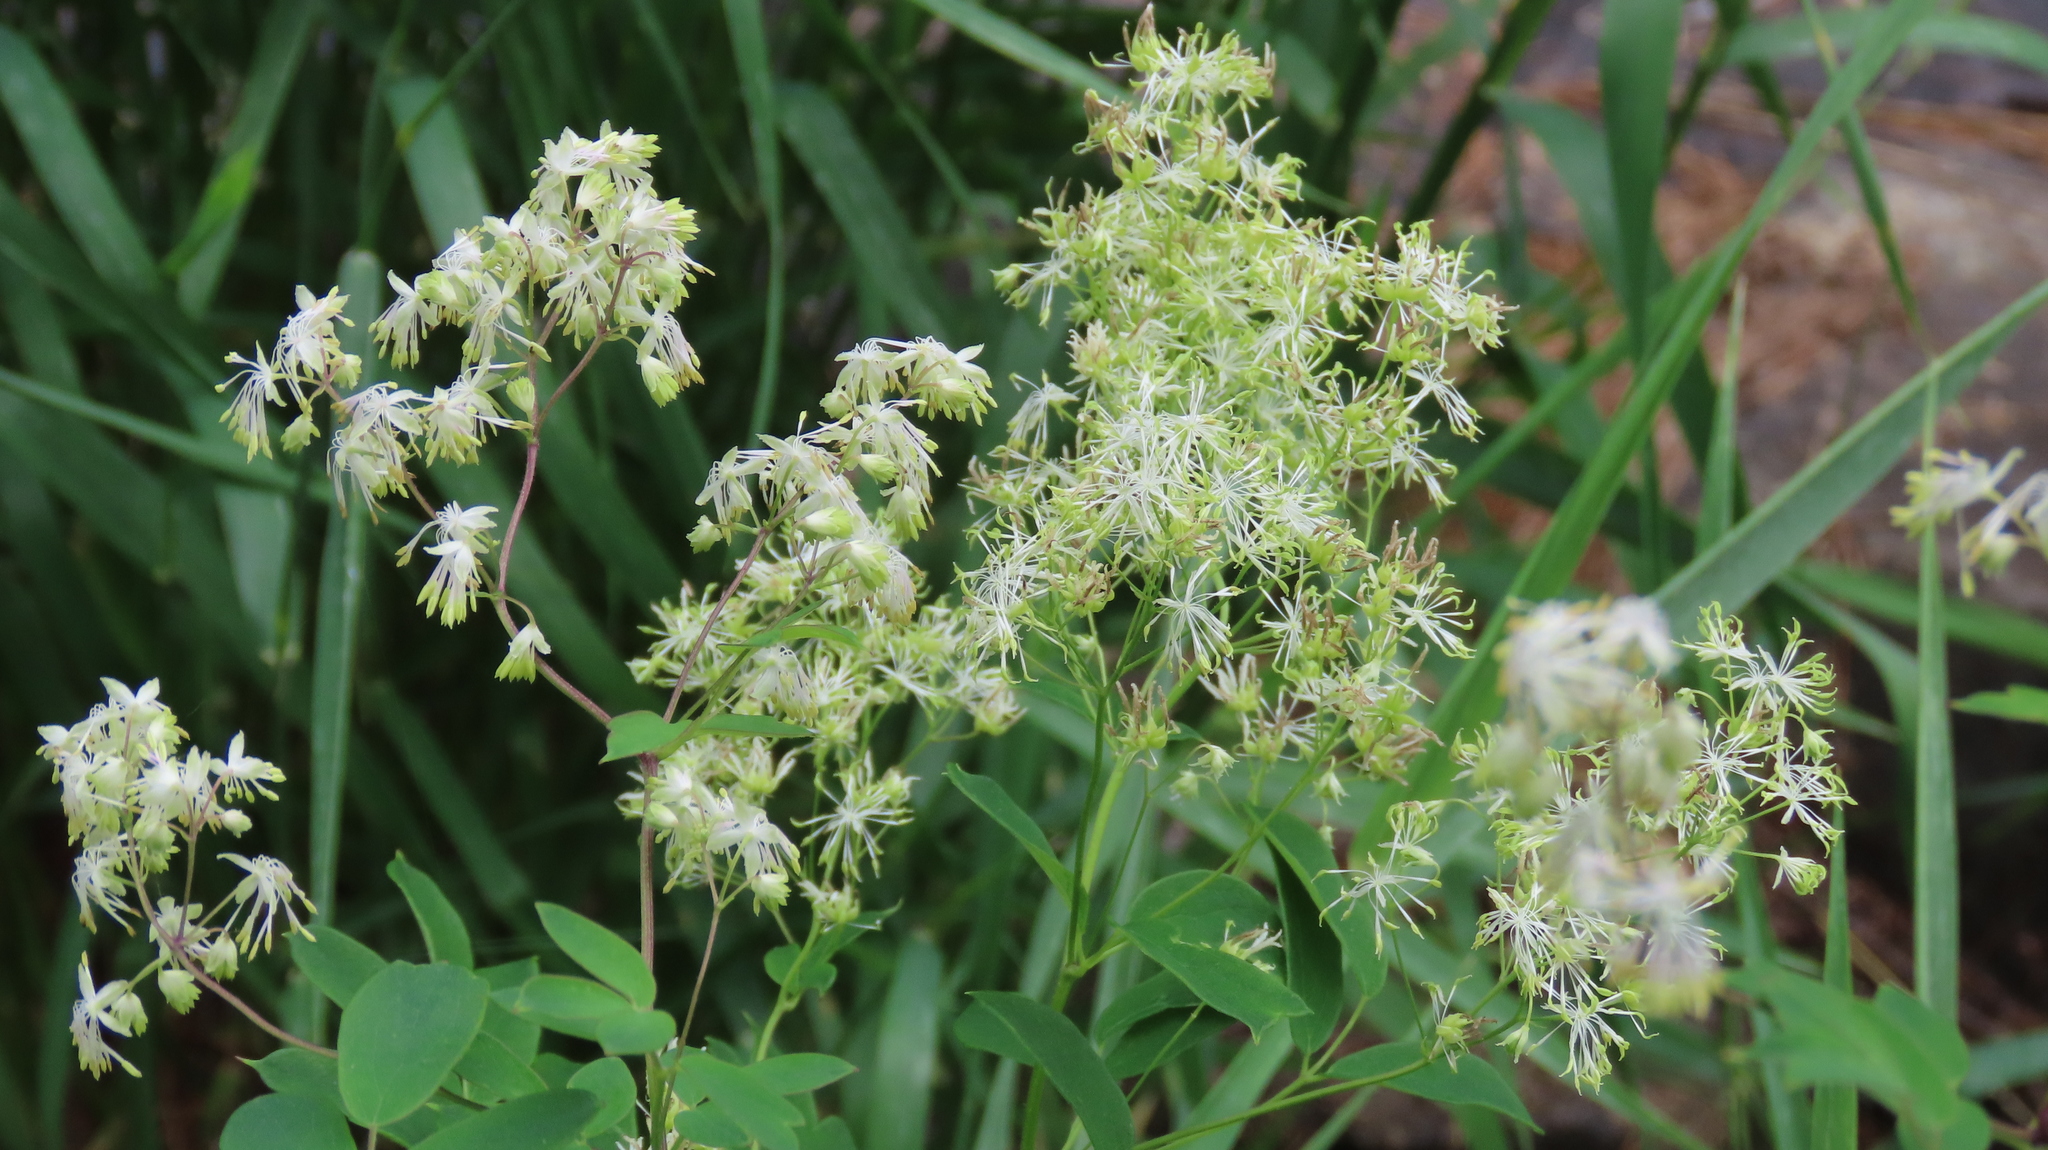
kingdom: Plantae
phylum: Tracheophyta
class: Magnoliopsida
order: Ranunculales
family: Ranunculaceae
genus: Thalictrum
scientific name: Thalictrum dasycarpum
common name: Purple meadow-rue
